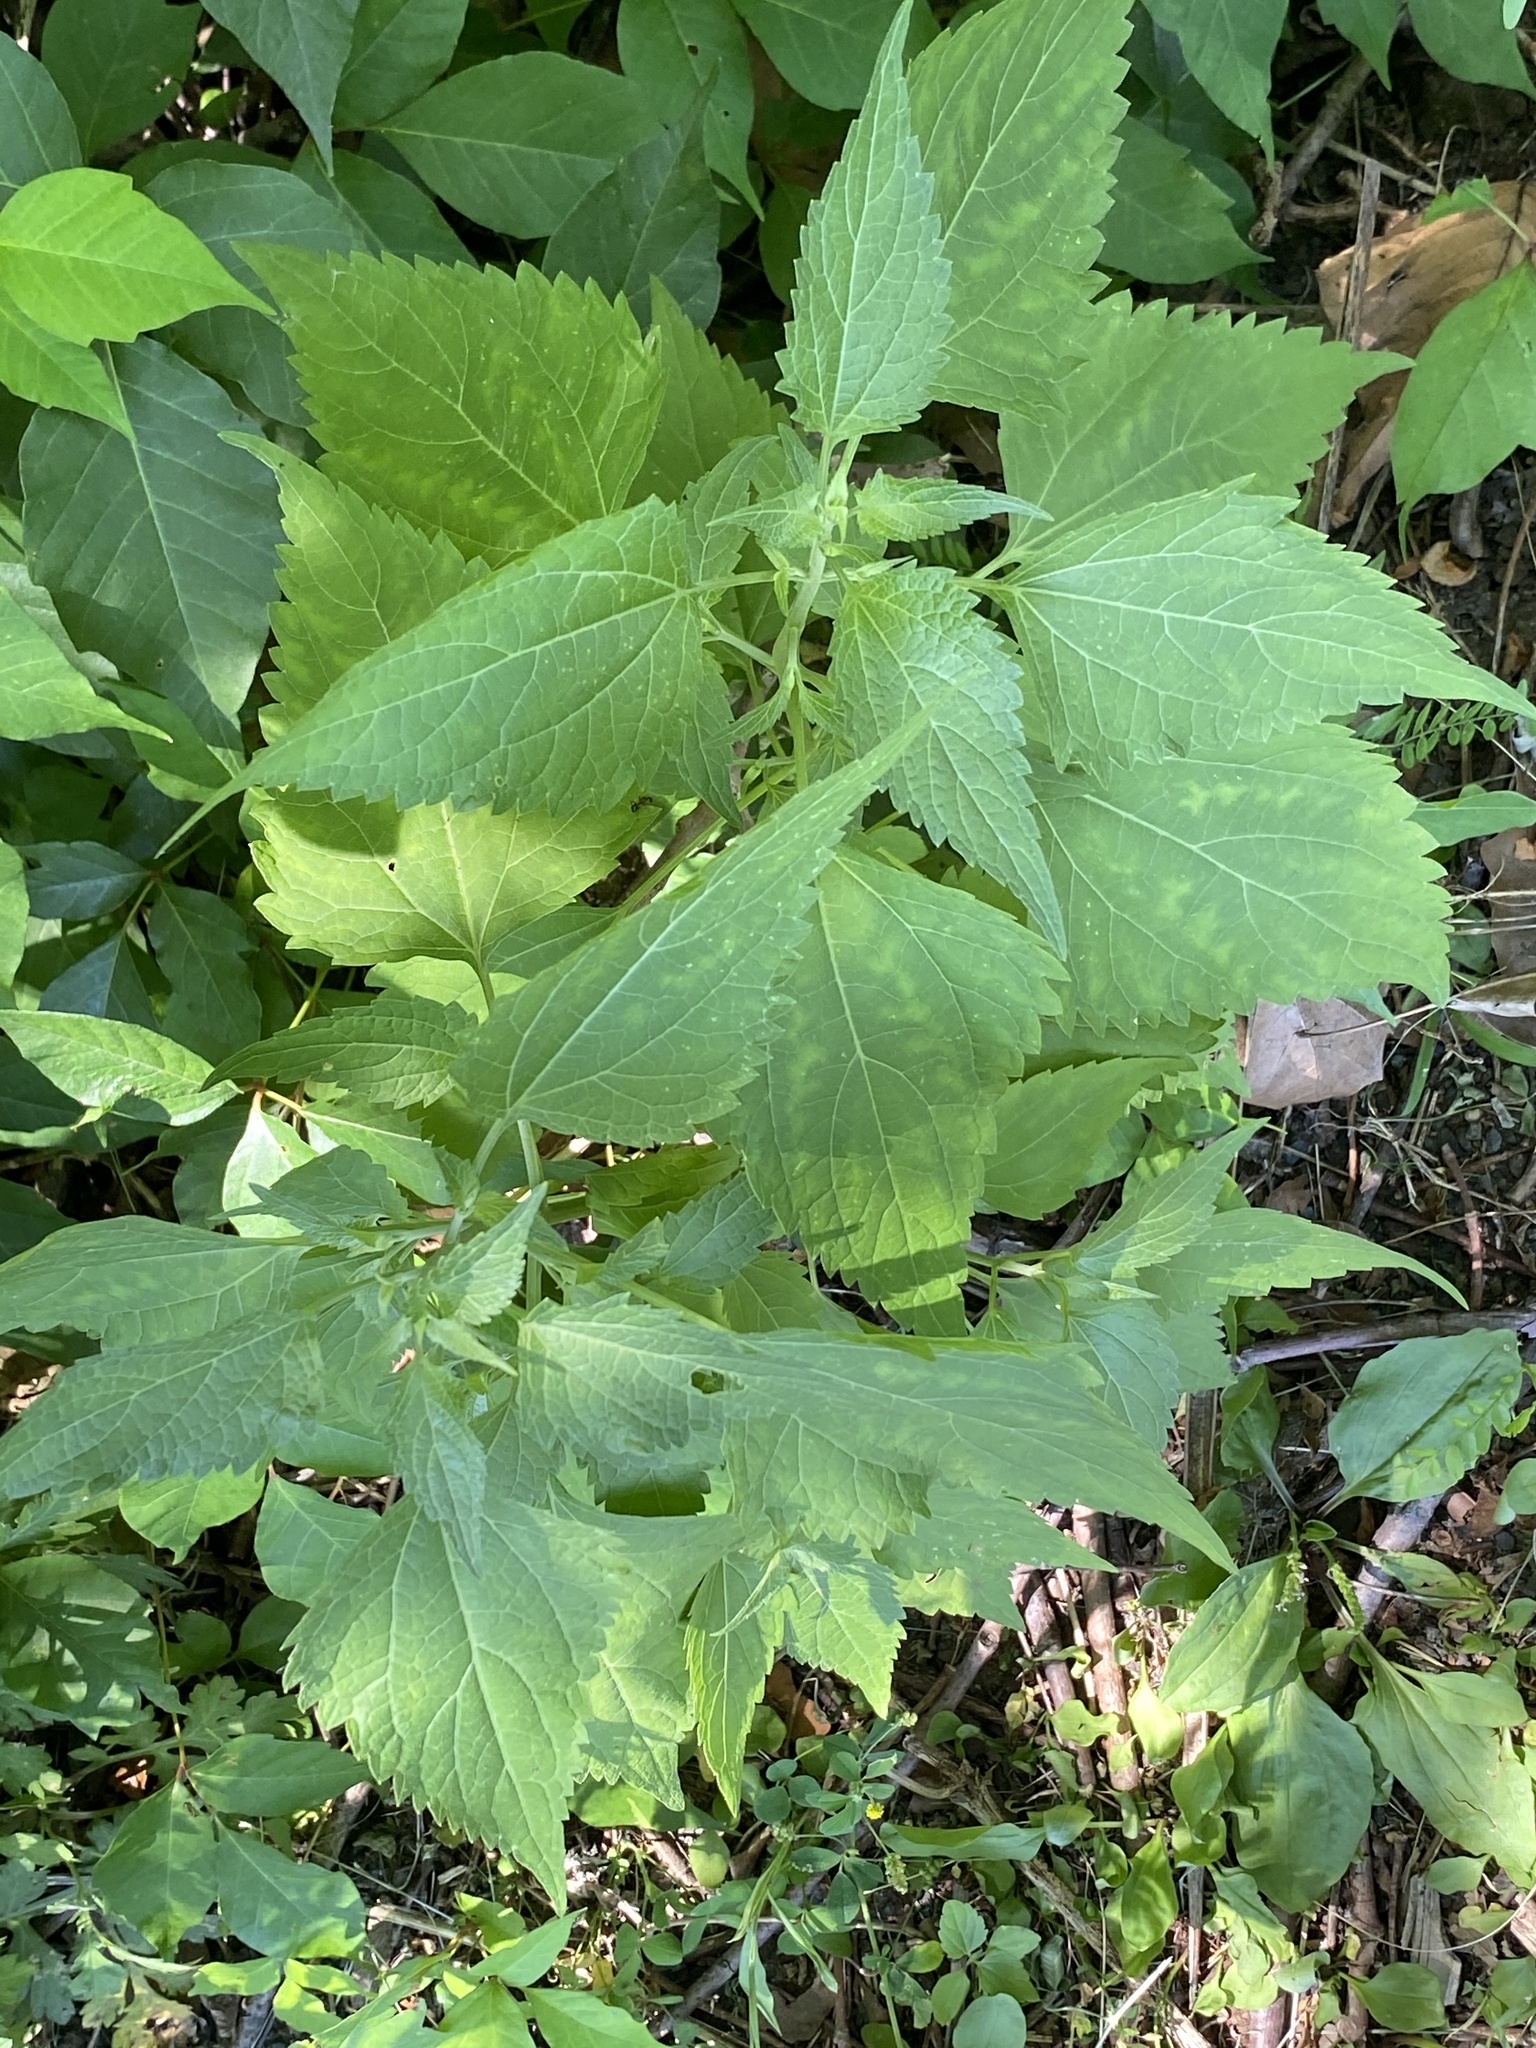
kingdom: Plantae
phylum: Tracheophyta
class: Magnoliopsida
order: Asterales
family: Asteraceae
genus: Ageratina
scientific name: Ageratina altissima
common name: White snakeroot
